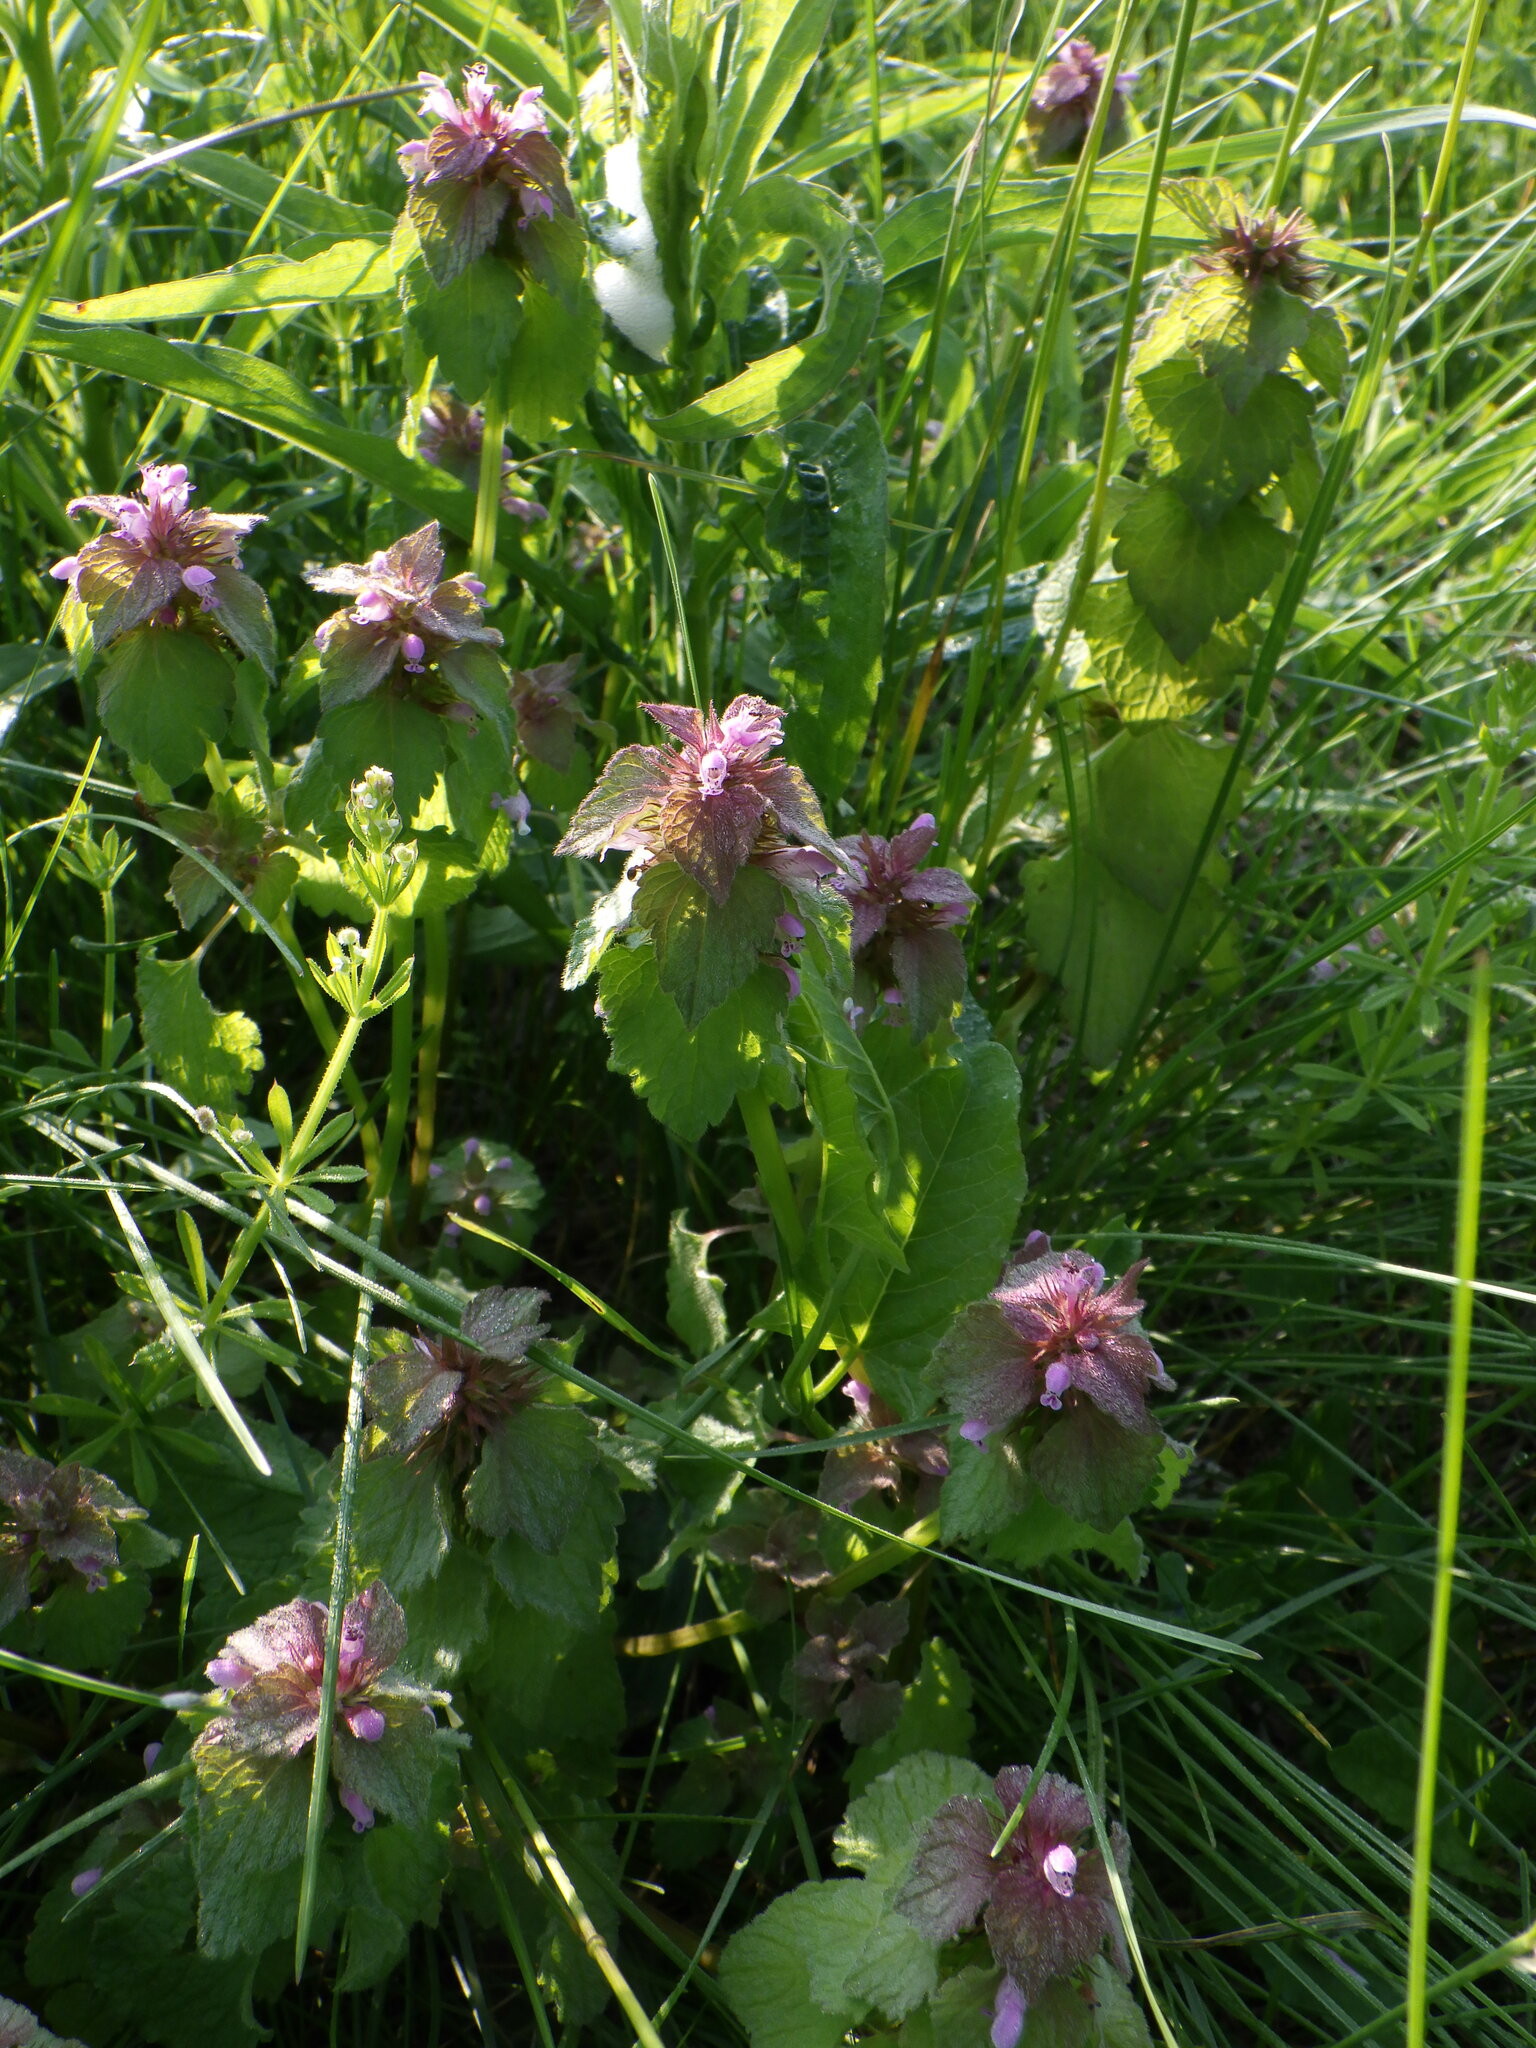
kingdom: Plantae
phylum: Tracheophyta
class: Magnoliopsida
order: Lamiales
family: Lamiaceae
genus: Lamium
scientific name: Lamium purpureum
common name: Red dead-nettle
